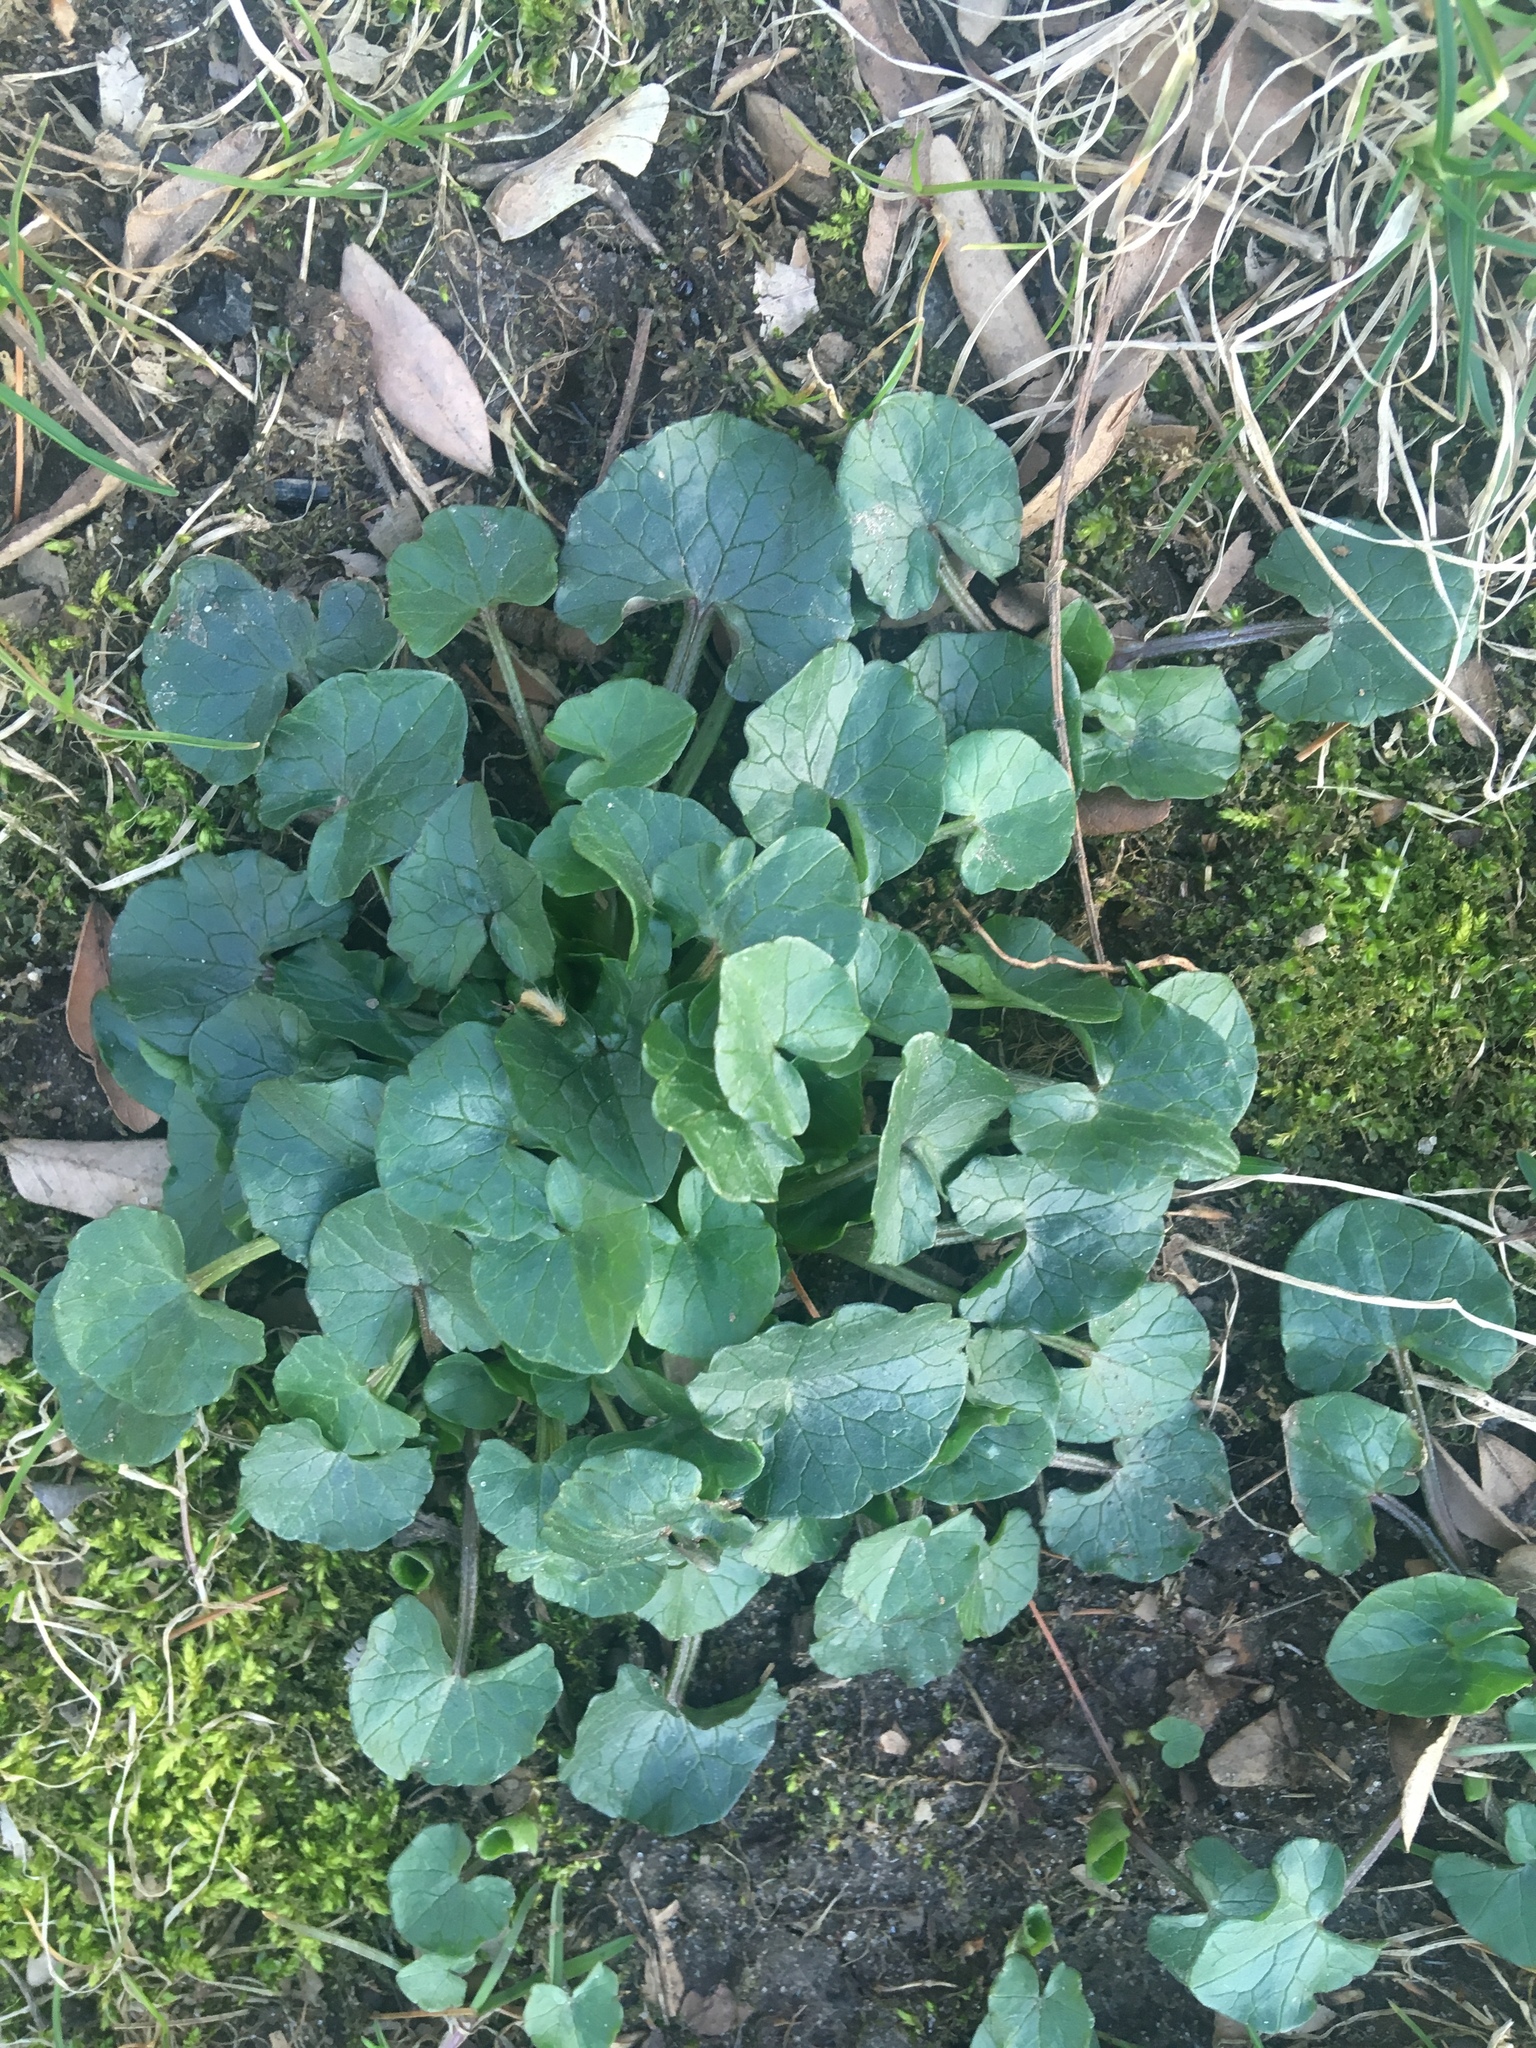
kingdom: Plantae
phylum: Tracheophyta
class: Magnoliopsida
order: Ranunculales
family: Ranunculaceae
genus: Ficaria
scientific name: Ficaria verna
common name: Lesser celandine
